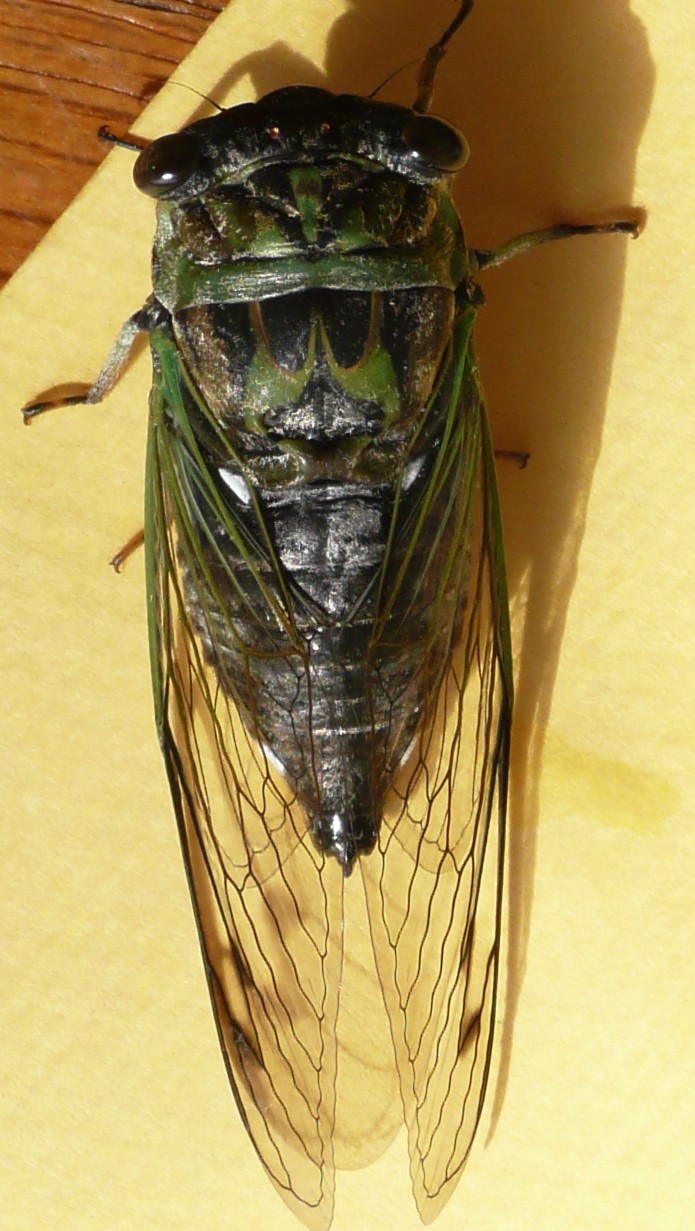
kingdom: Animalia
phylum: Arthropoda
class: Insecta
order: Hemiptera
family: Cicadidae
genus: Neotibicen
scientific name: Neotibicen linnei
